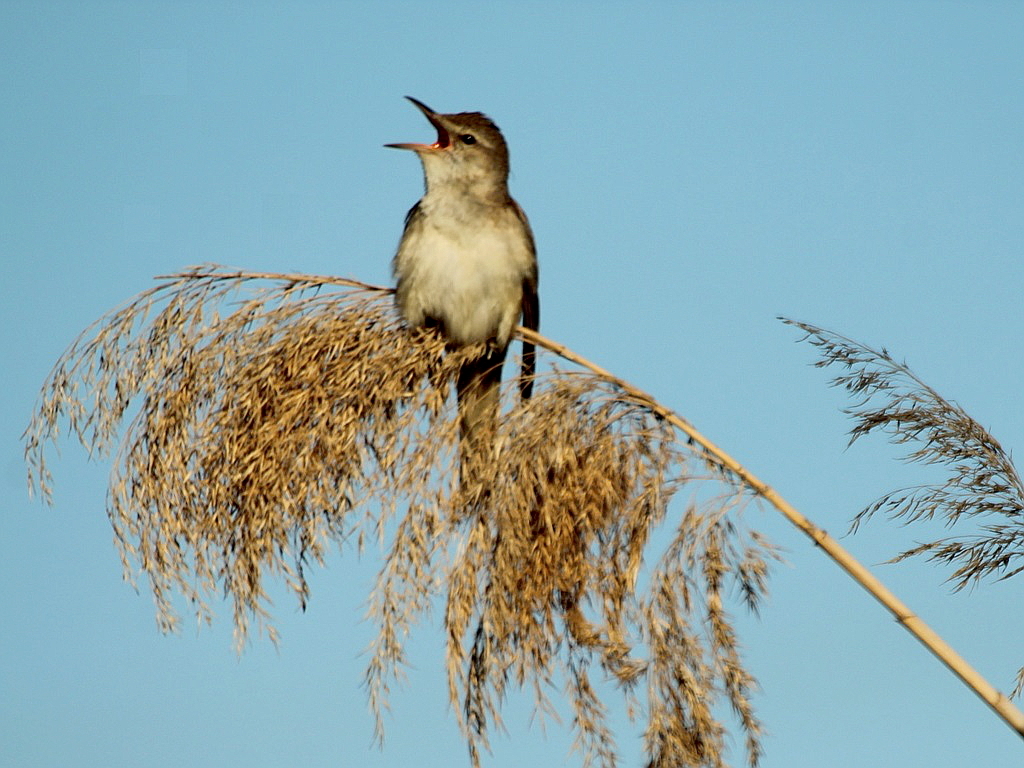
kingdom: Animalia
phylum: Chordata
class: Aves
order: Passeriformes
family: Acrocephalidae
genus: Acrocephalus
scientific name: Acrocephalus arundinaceus
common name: Great reed warbler
